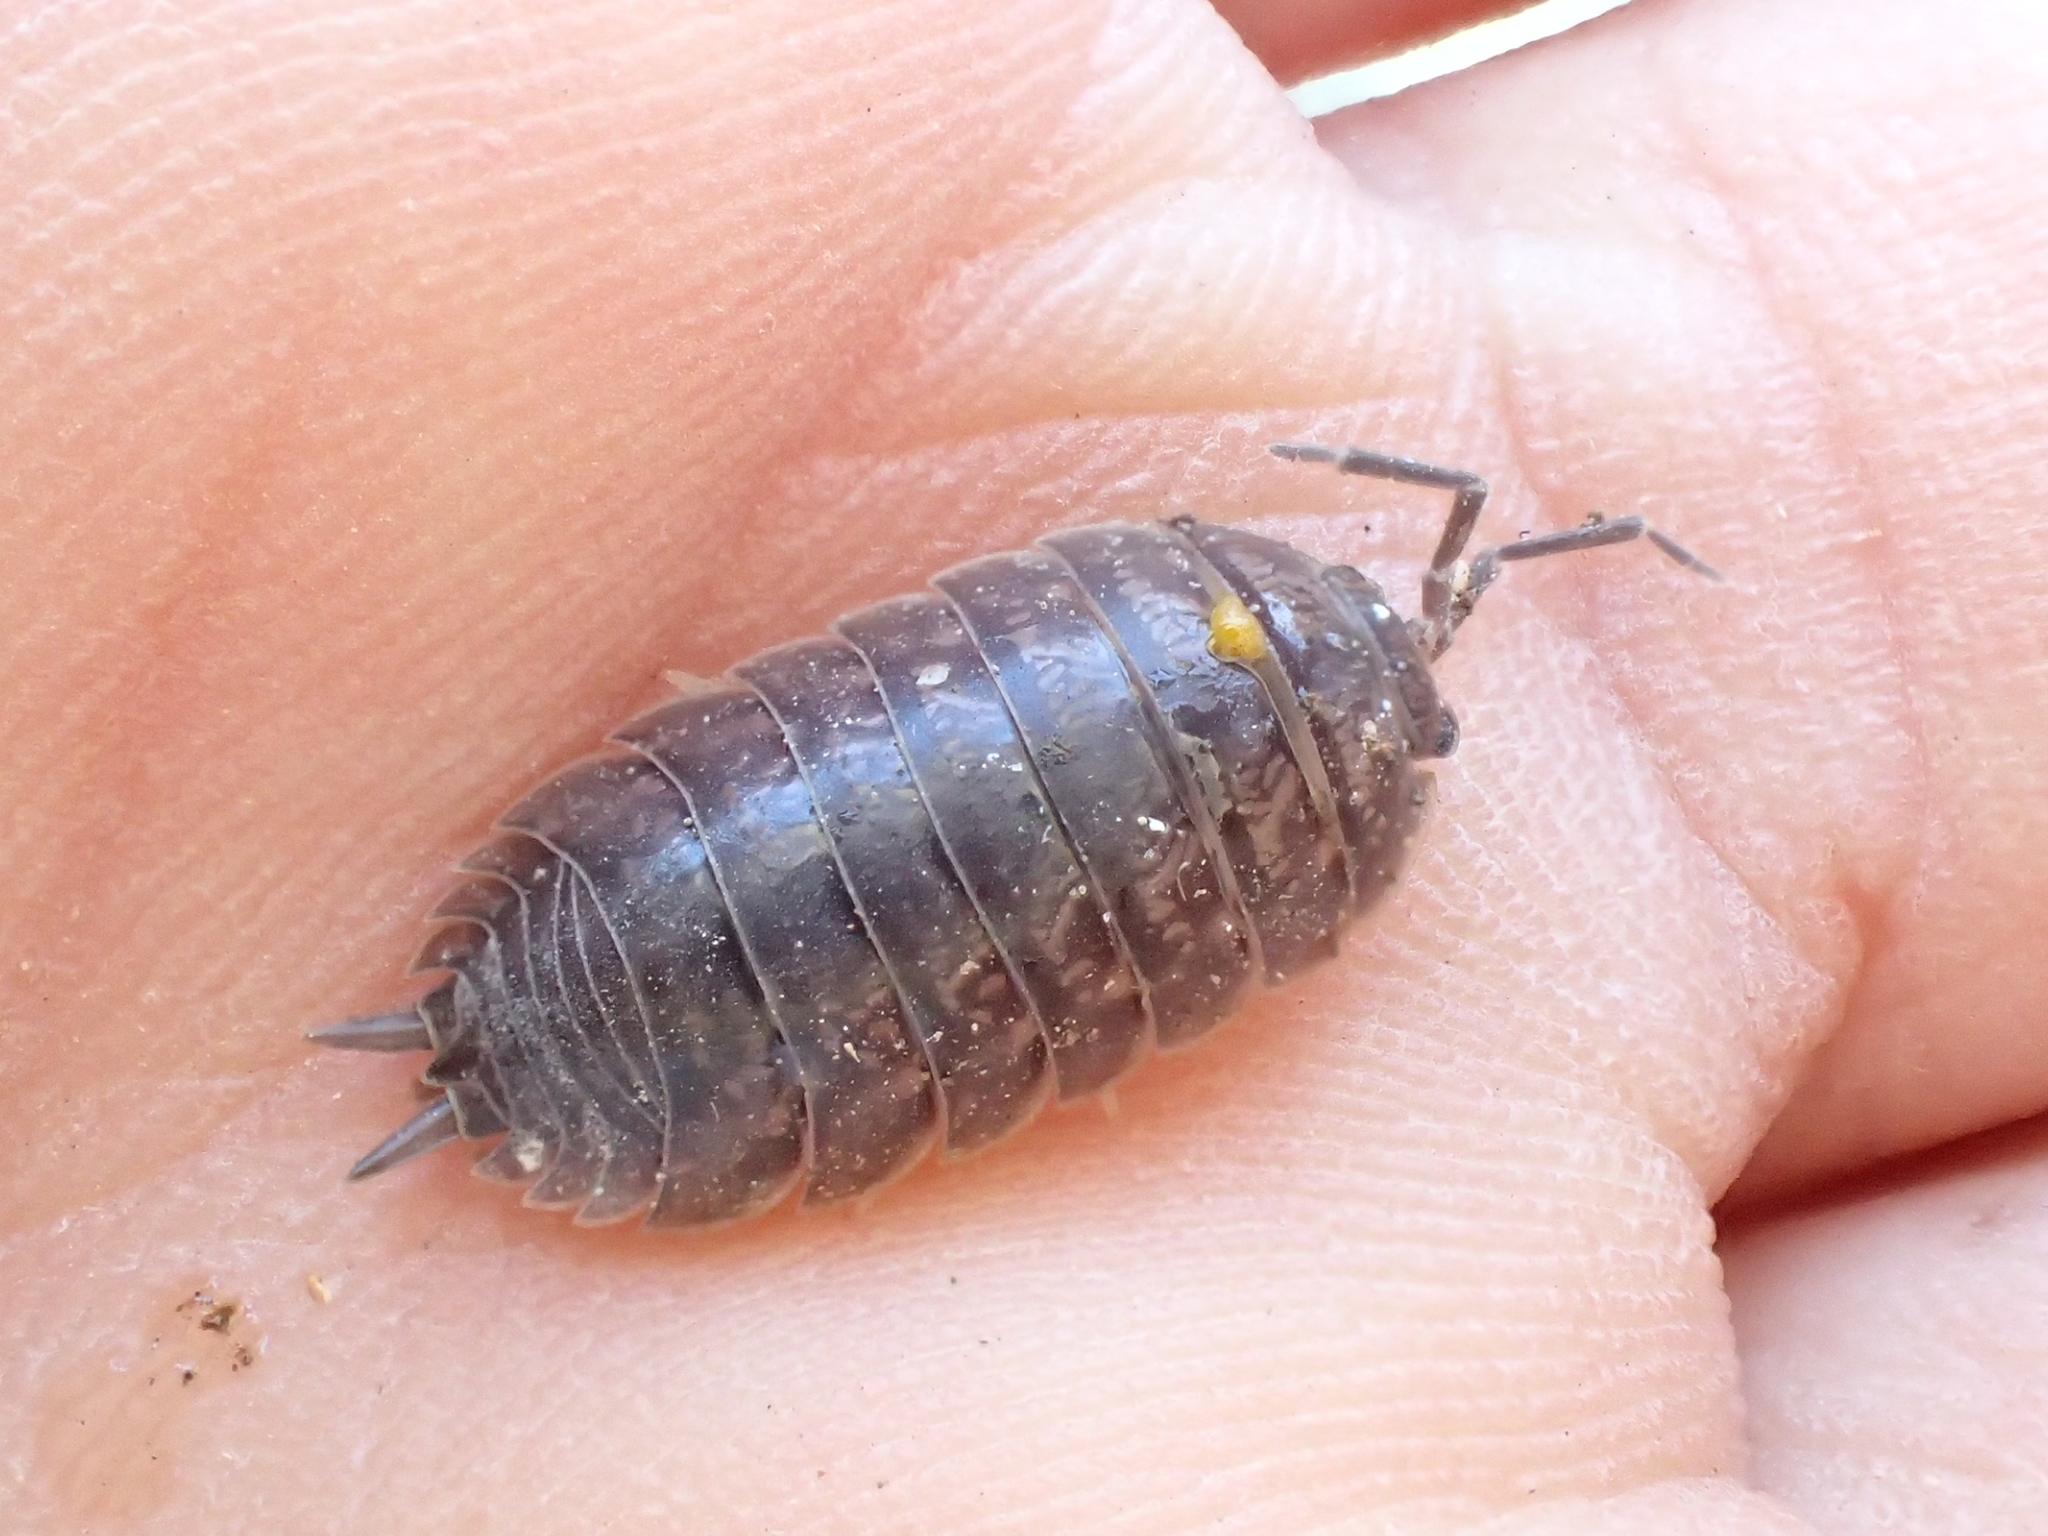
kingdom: Animalia
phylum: Arthropoda
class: Malacostraca
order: Isopoda
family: Porcellionidae
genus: Porcellio
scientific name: Porcellio laevis
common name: Swift woodlouse
